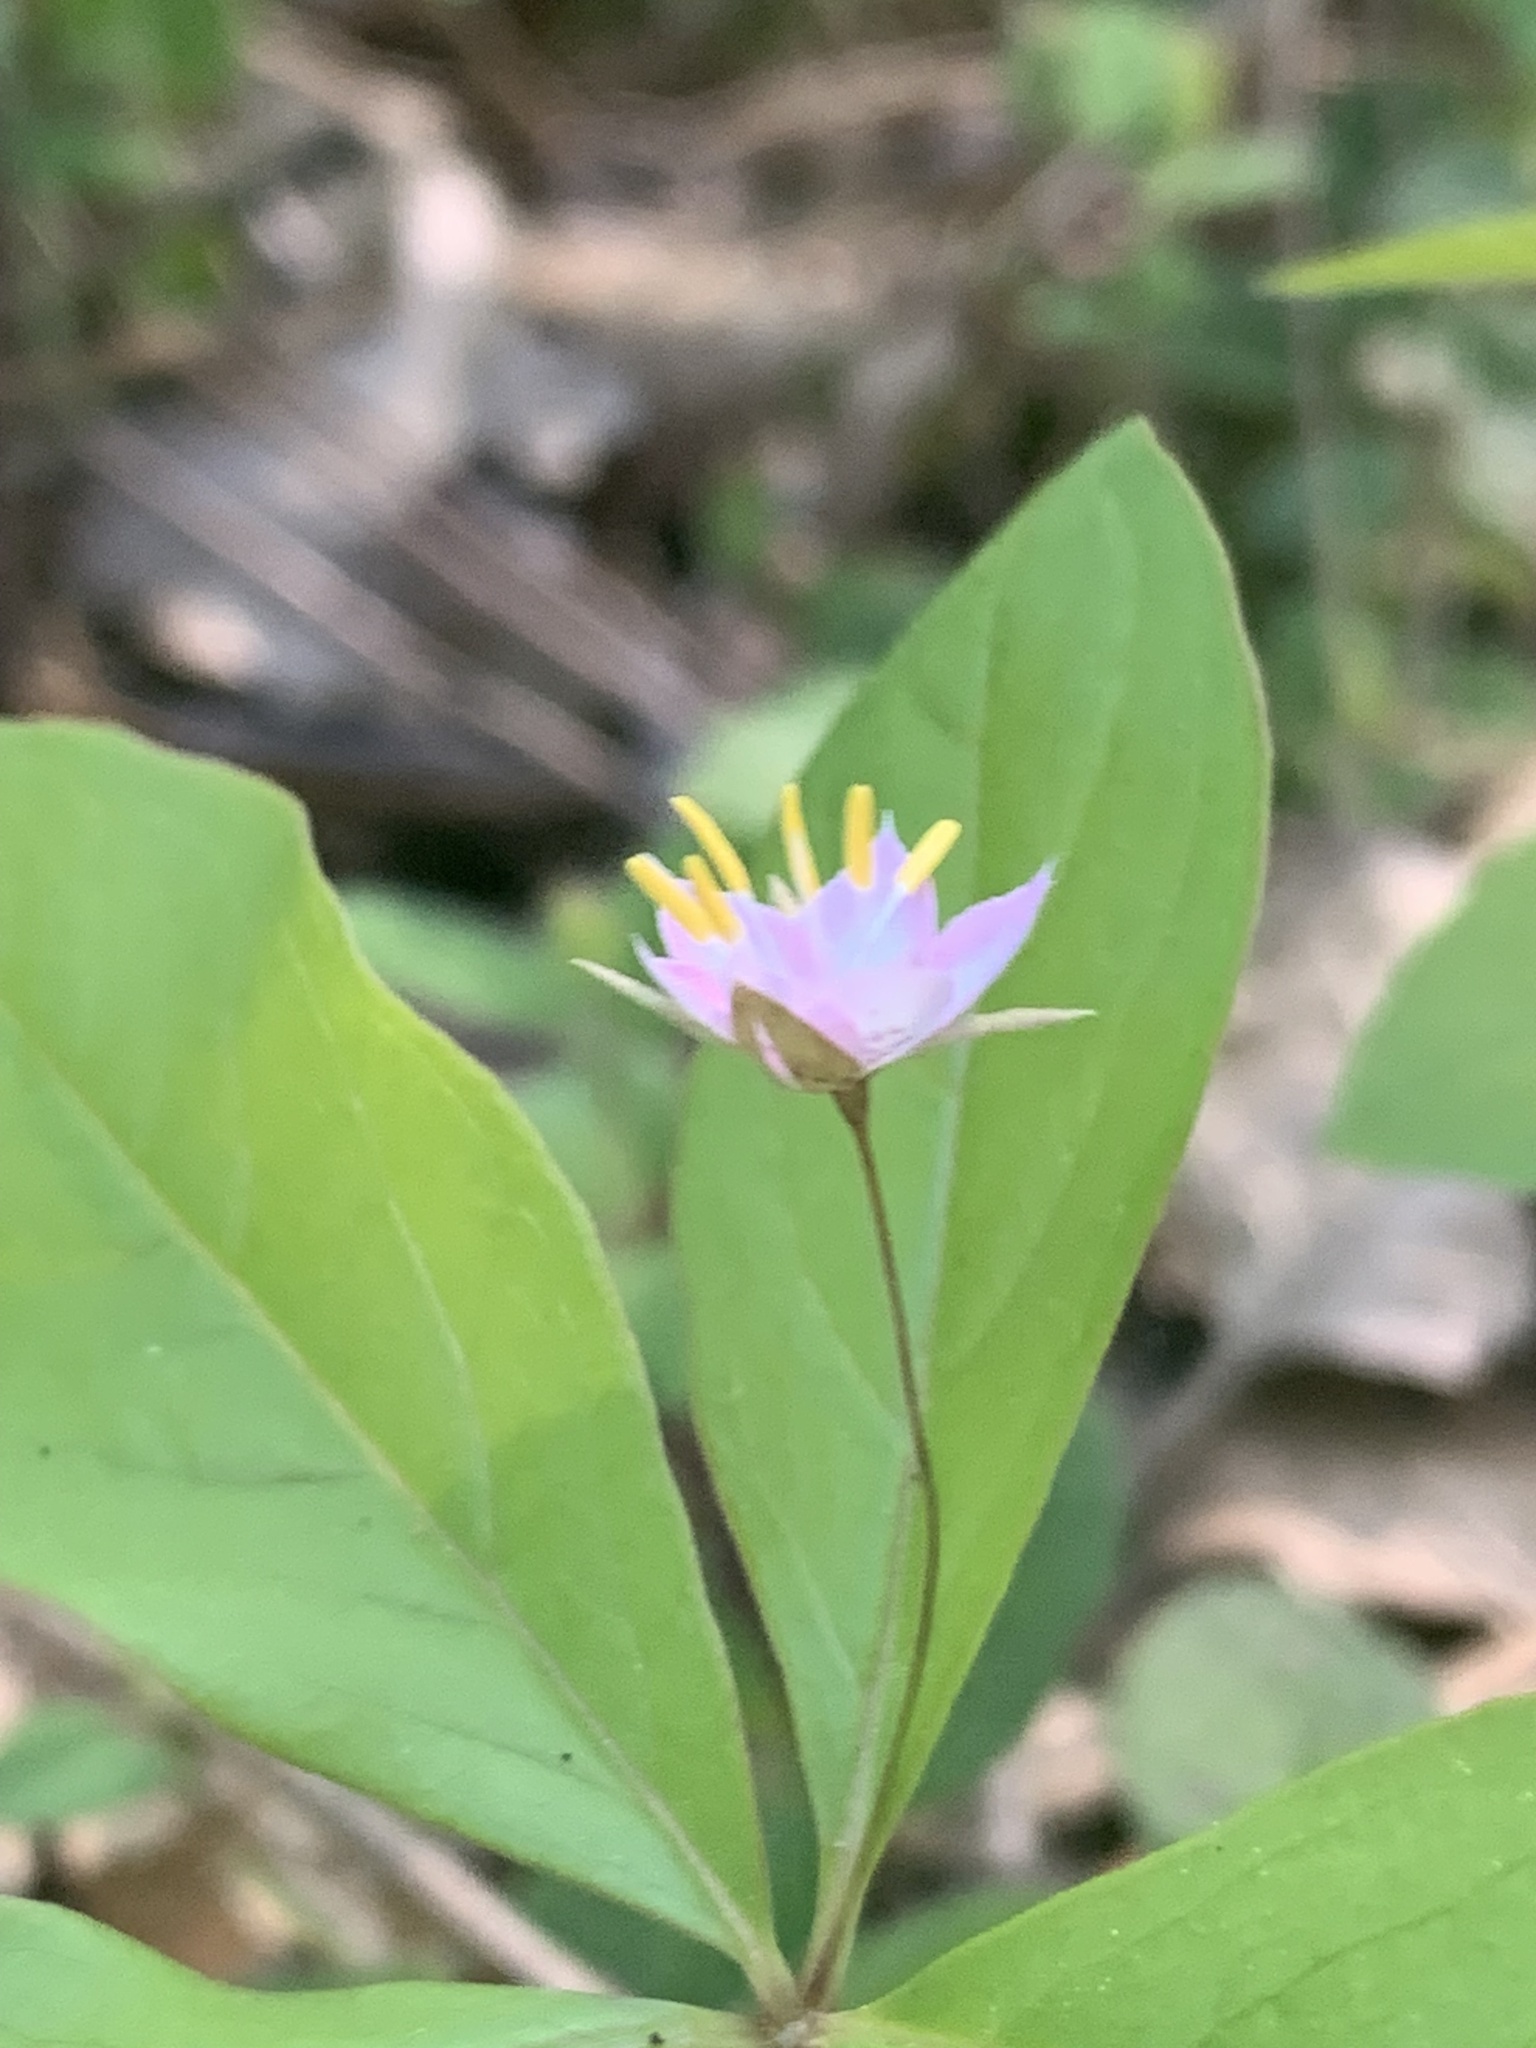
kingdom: Plantae
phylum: Tracheophyta
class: Magnoliopsida
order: Ericales
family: Primulaceae
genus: Lysimachia
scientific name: Lysimachia latifolia
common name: Pacific starflower
